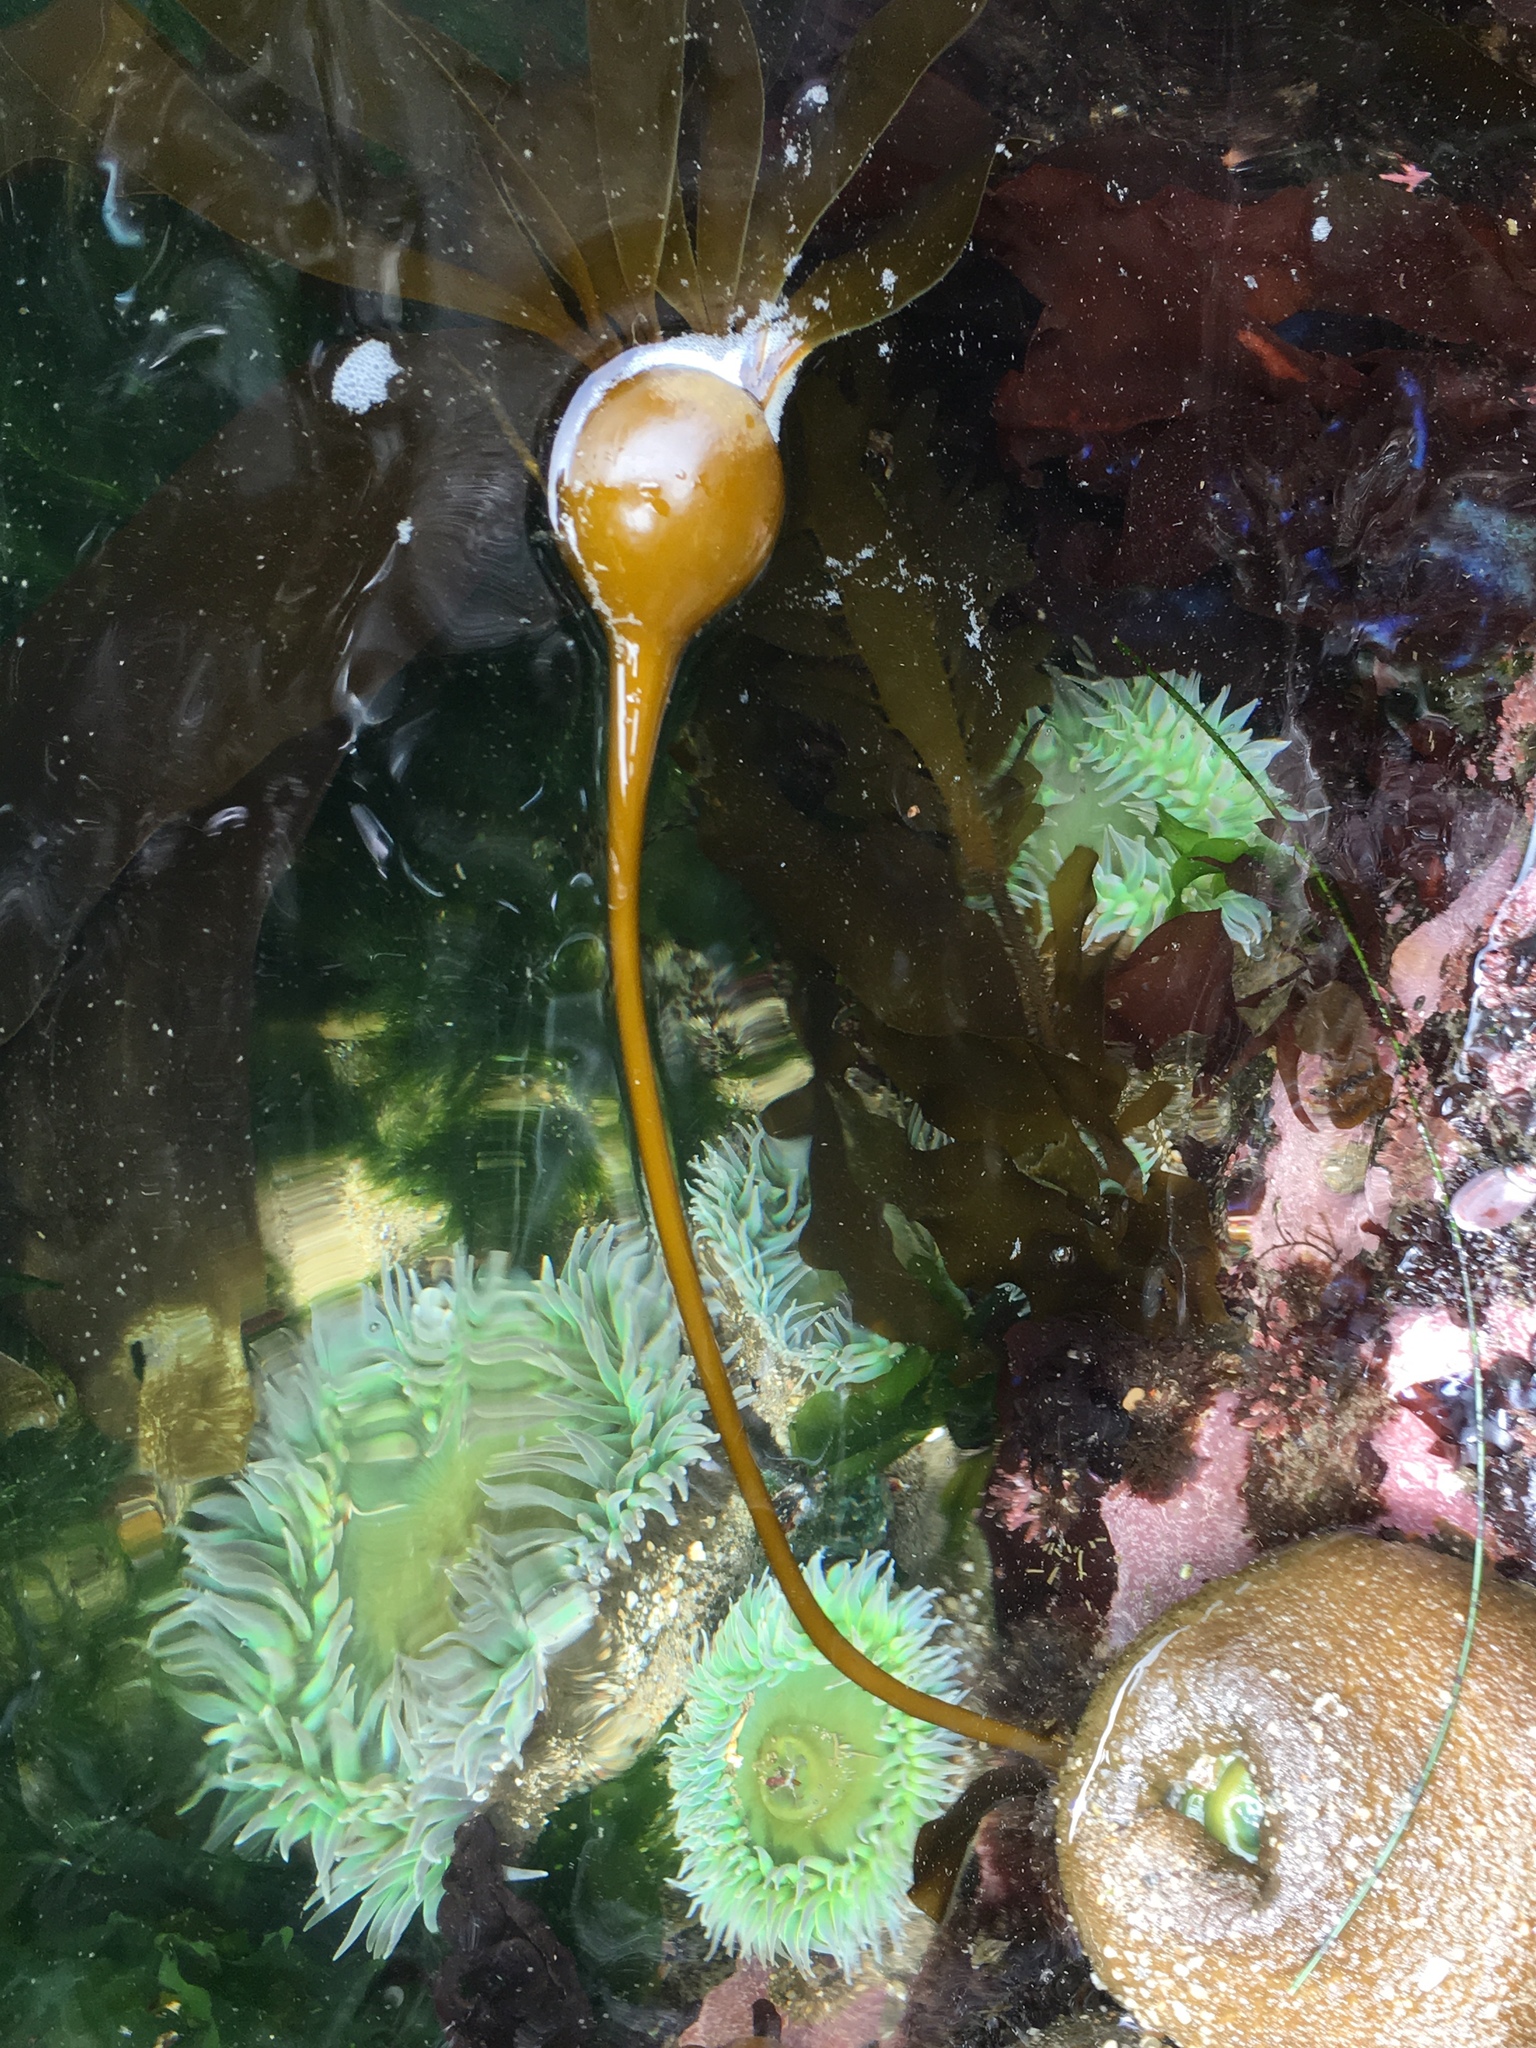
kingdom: Chromista
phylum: Ochrophyta
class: Phaeophyceae
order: Laminariales
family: Laminariaceae
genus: Nereocystis
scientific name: Nereocystis luetkeana
